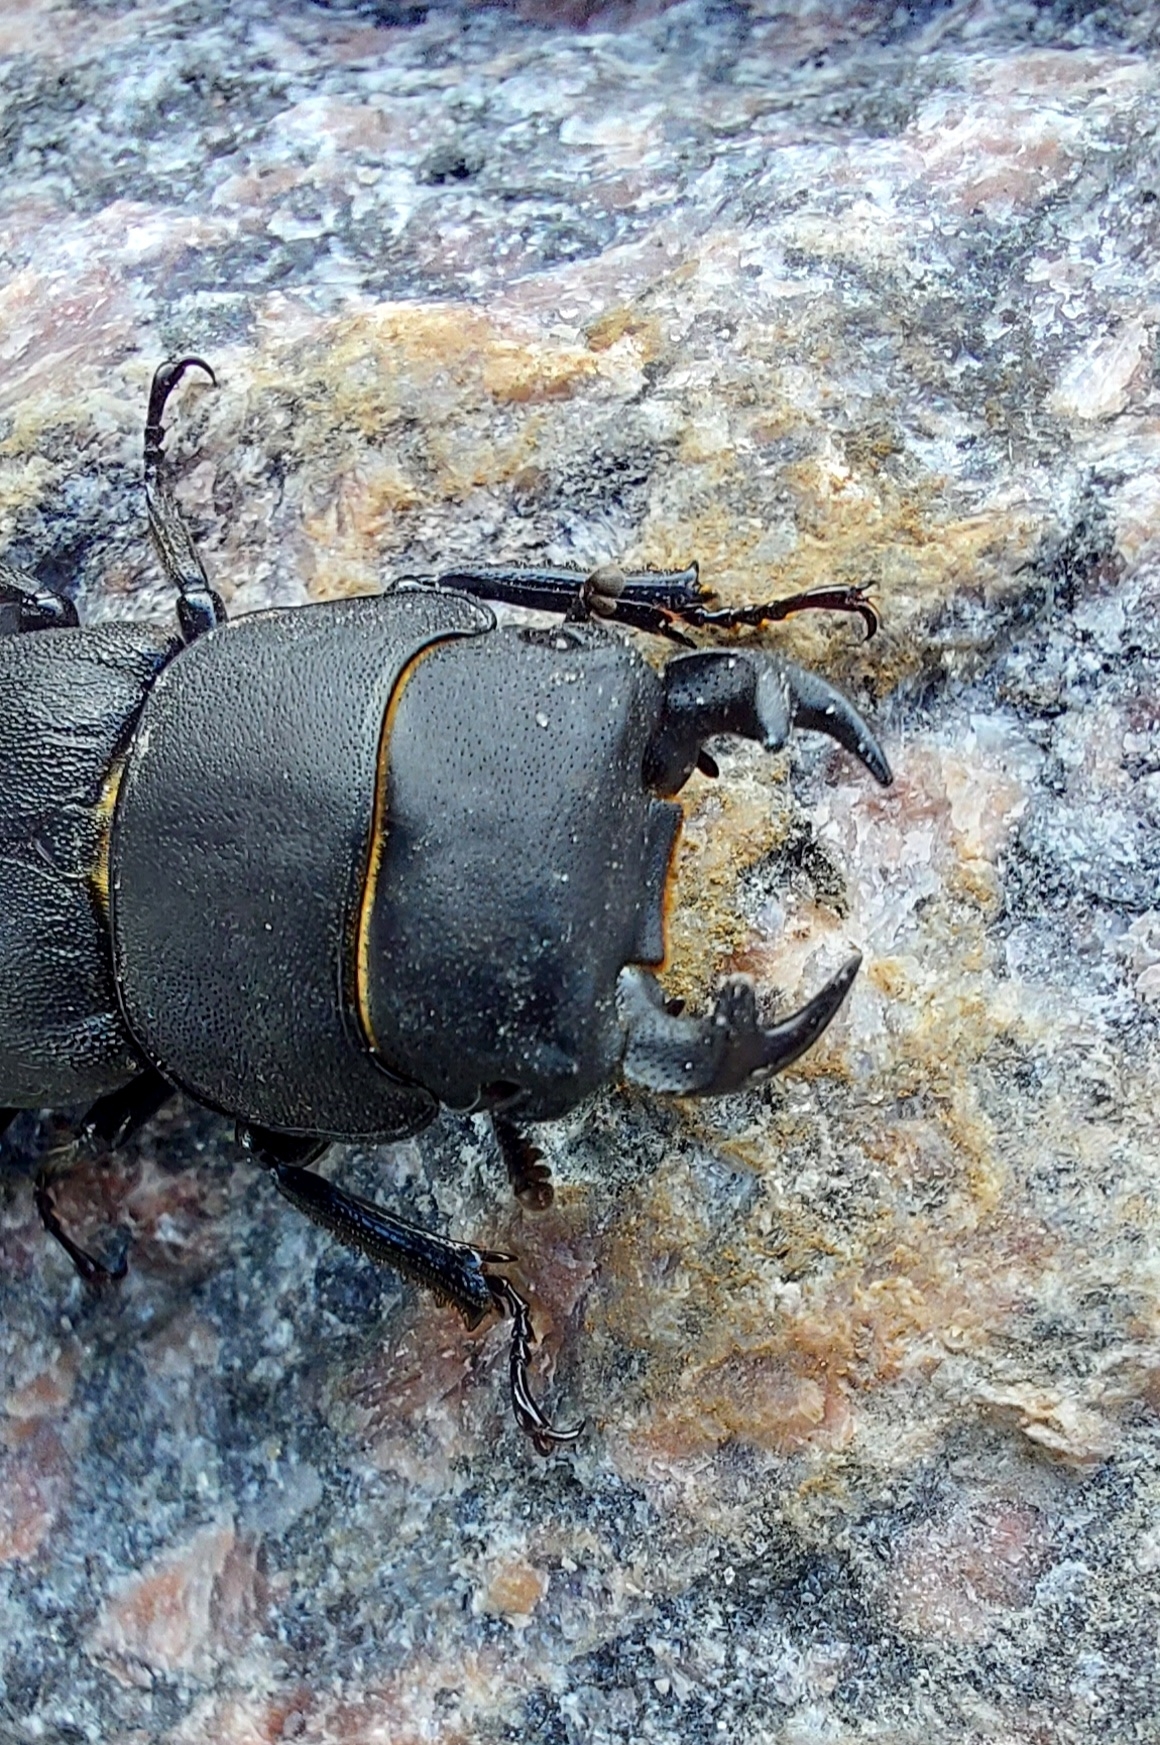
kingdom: Animalia
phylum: Arthropoda
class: Insecta
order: Coleoptera
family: Lucanidae
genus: Dorcus
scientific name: Dorcus parallelipipedus
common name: Lesser stag beetle
